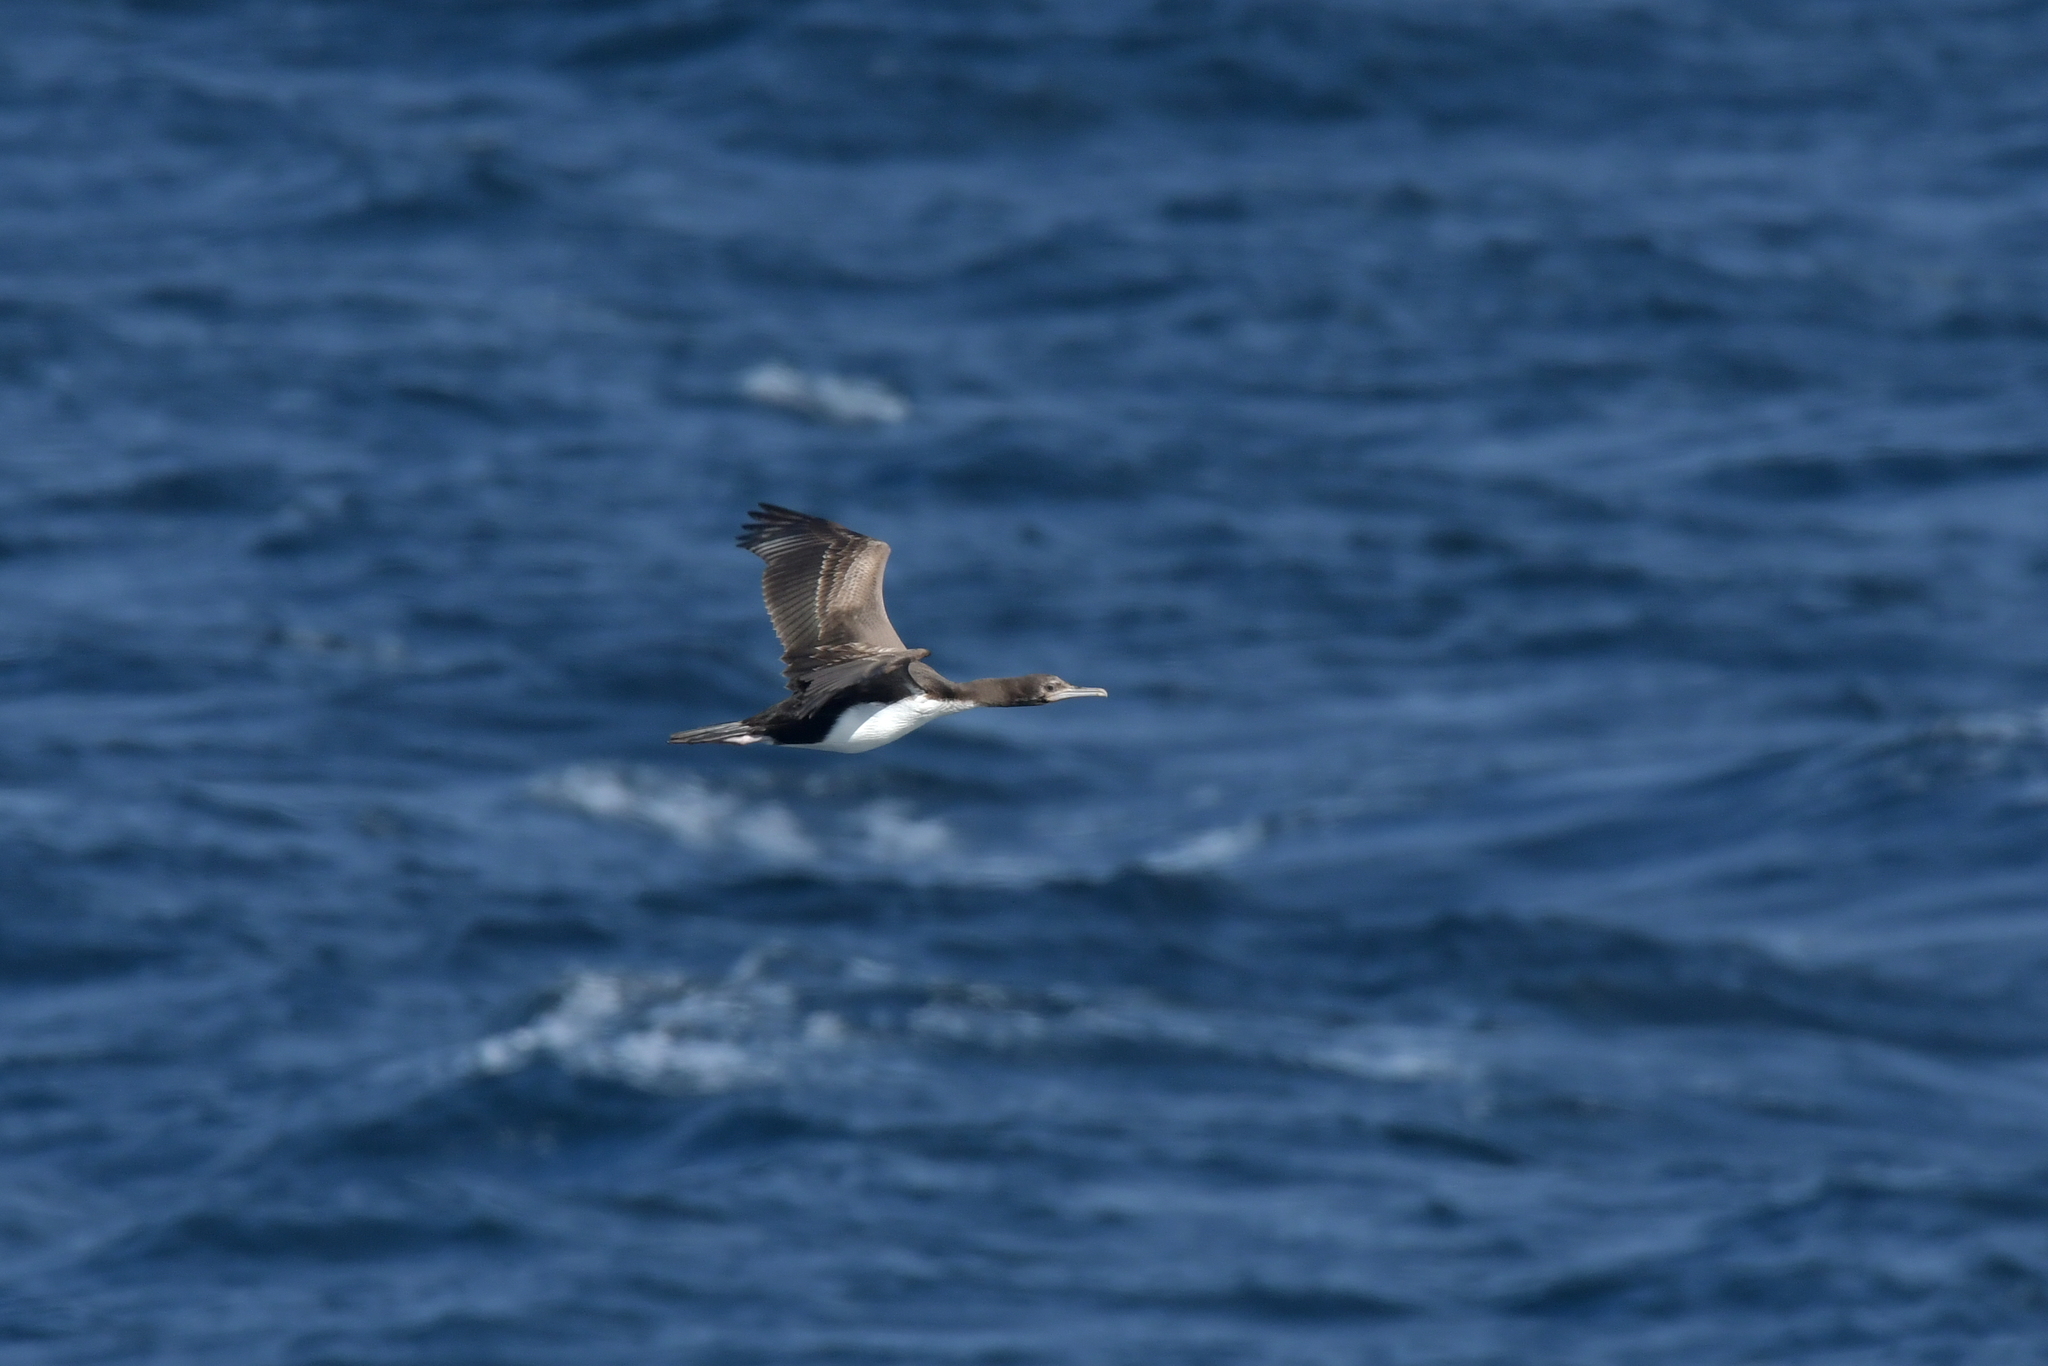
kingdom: Animalia
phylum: Chordata
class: Aves
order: Suliformes
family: Phalacrocoracidae
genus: Leucocarbo
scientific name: Leucocarbo onslowi
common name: Chatham shag
